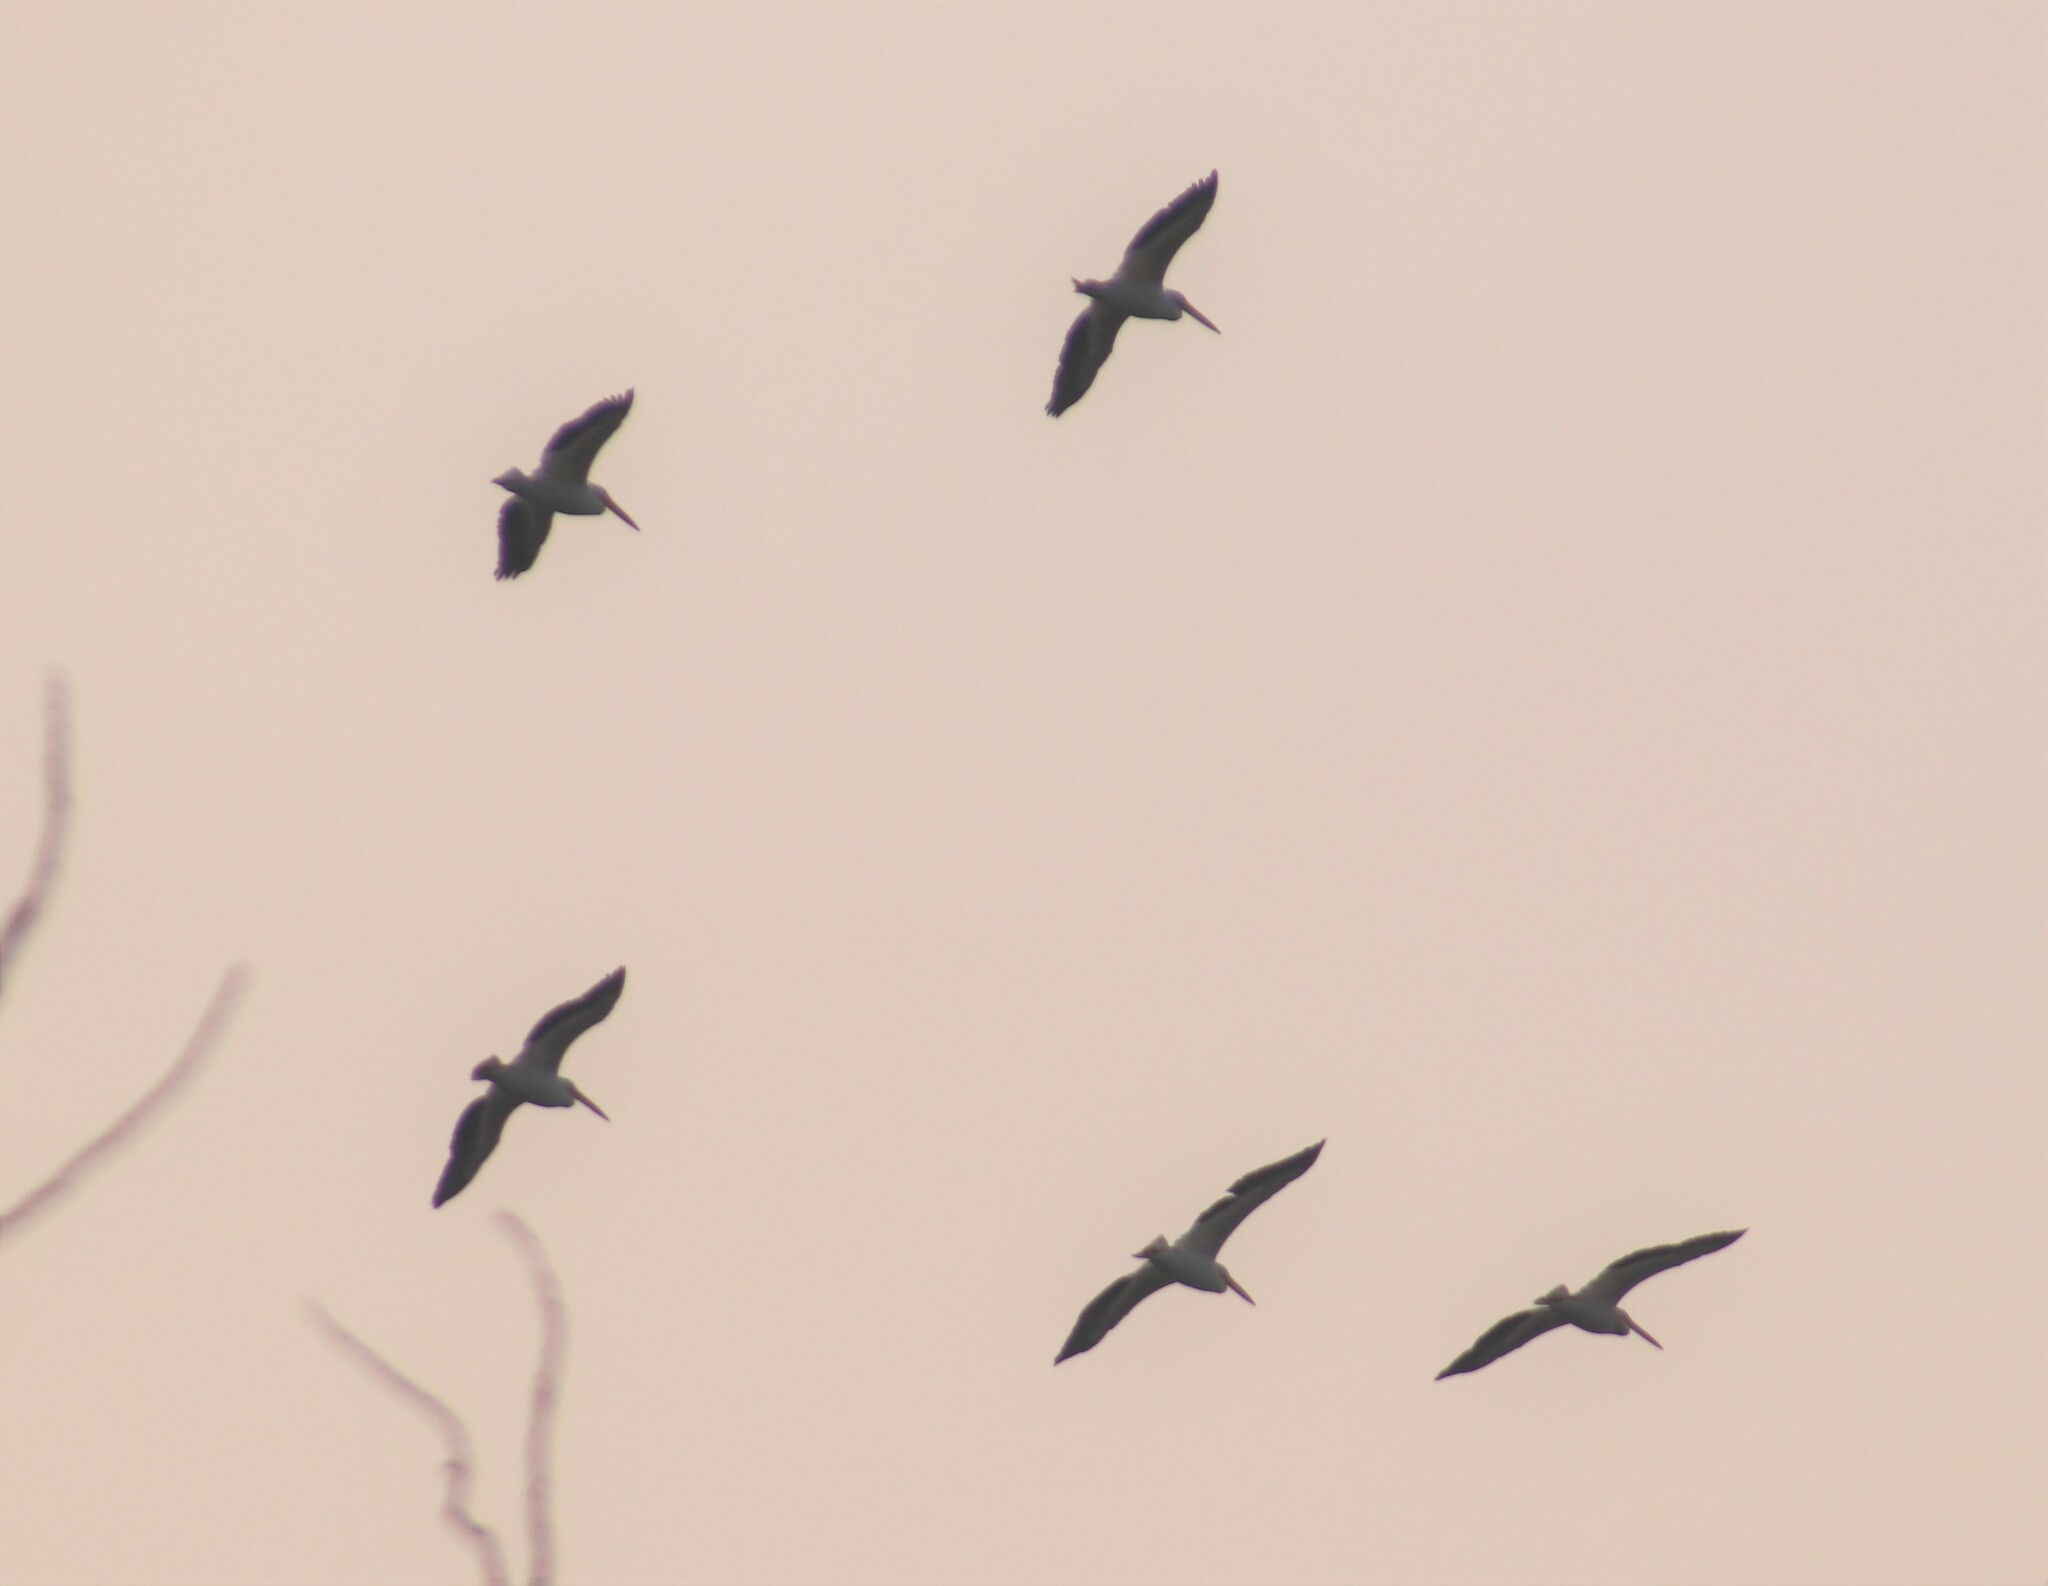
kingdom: Animalia
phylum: Chordata
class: Aves
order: Pelecaniformes
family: Pelecanidae
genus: Pelecanus
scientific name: Pelecanus erythrorhynchos
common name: American white pelican
